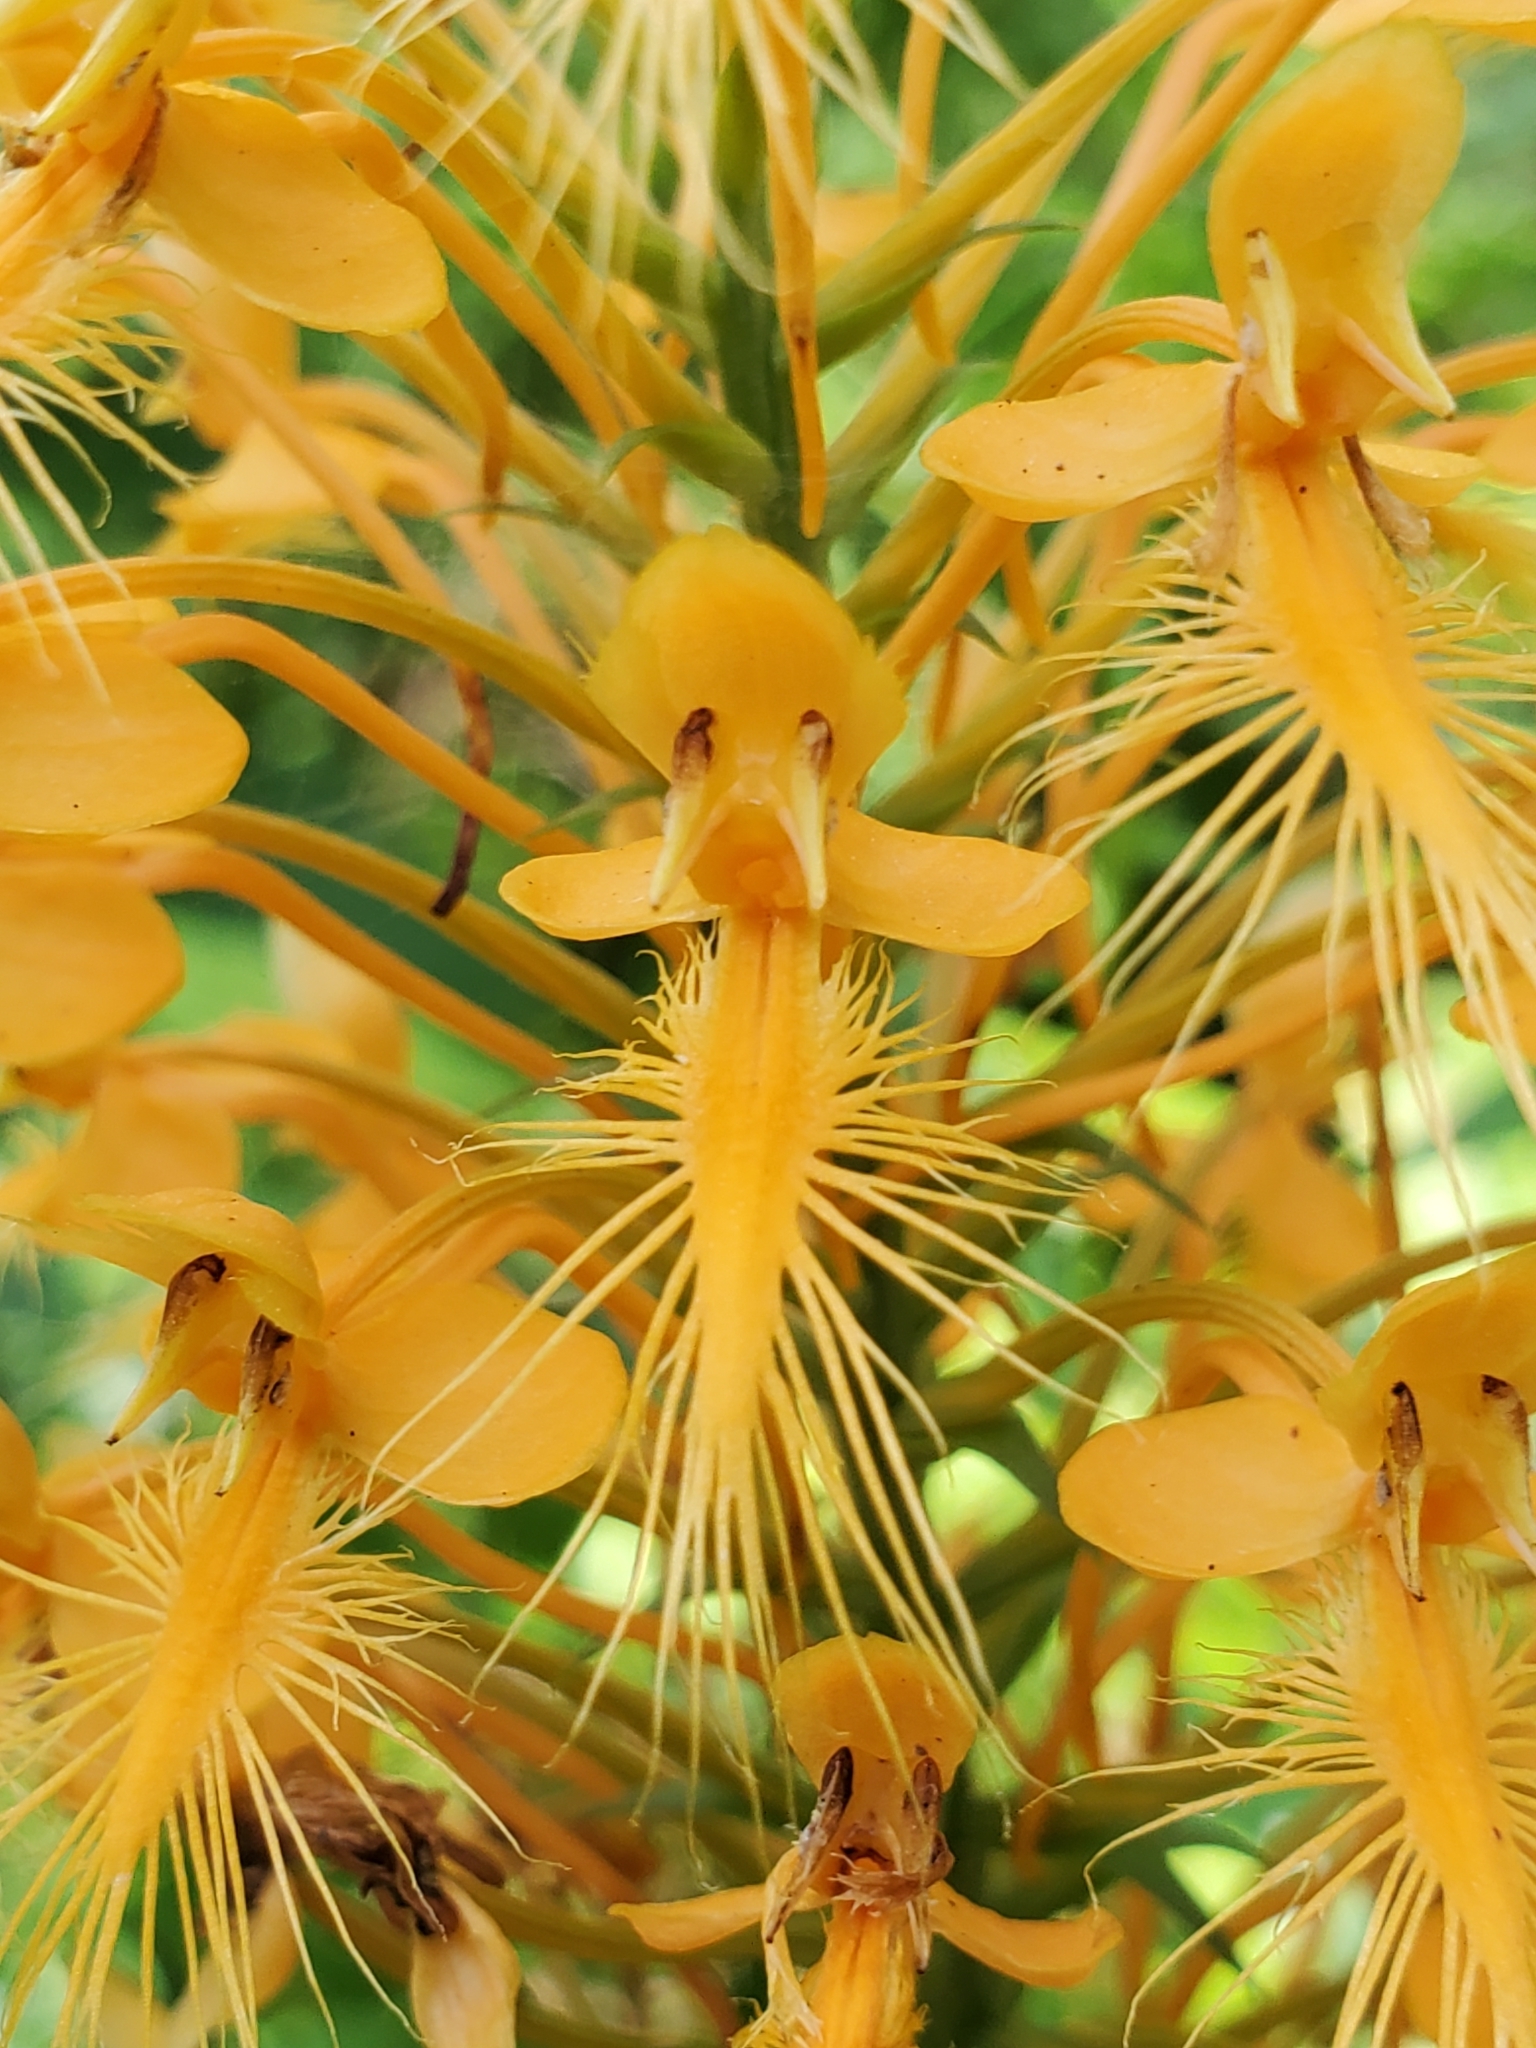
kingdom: Plantae
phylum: Tracheophyta
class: Liliopsida
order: Asparagales
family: Orchidaceae
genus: Platanthera
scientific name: Platanthera ciliaris
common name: Yellow fringed orchid
